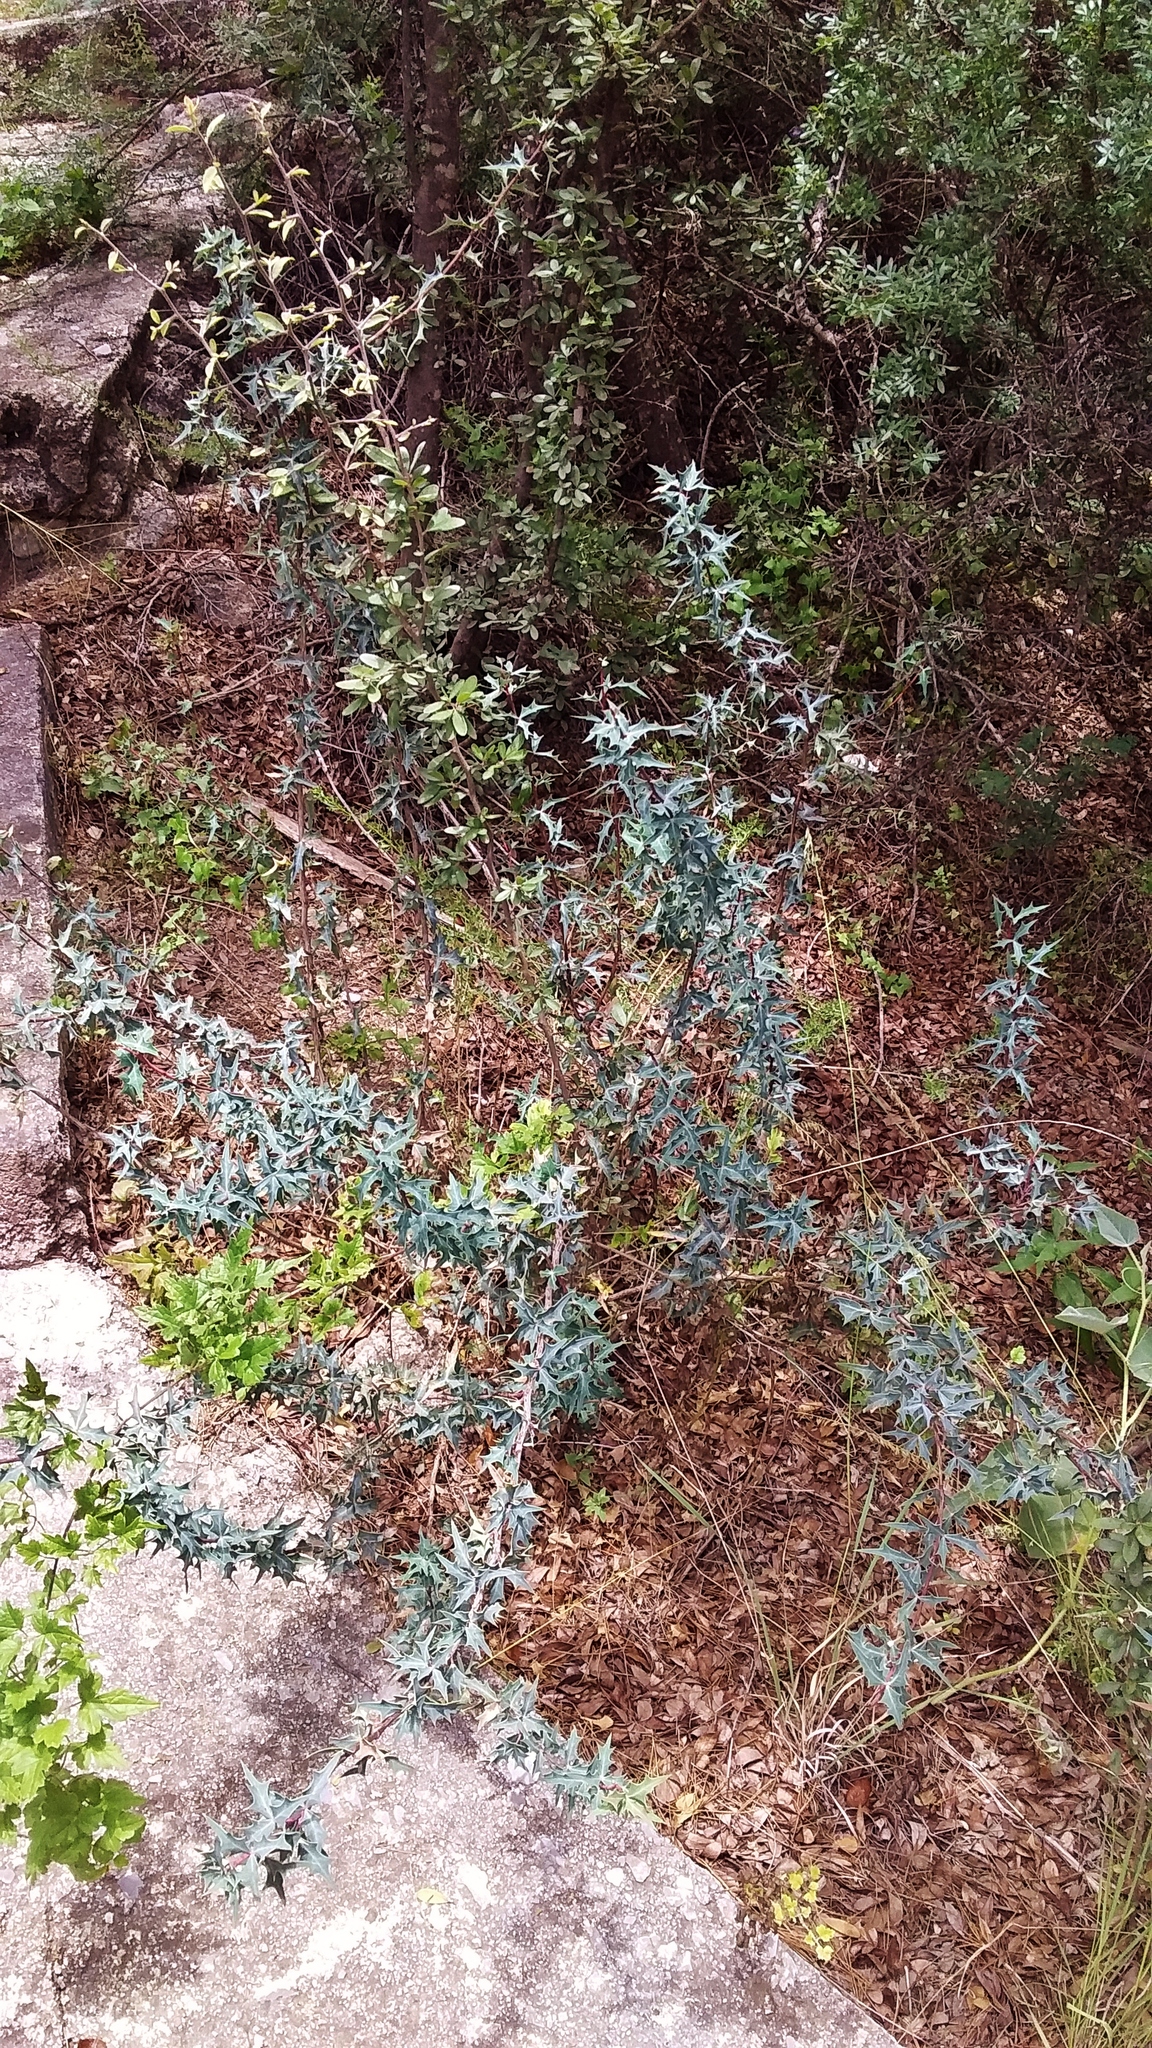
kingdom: Plantae
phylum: Tracheophyta
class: Magnoliopsida
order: Ranunculales
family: Berberidaceae
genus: Alloberberis
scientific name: Alloberberis trifoliolata
